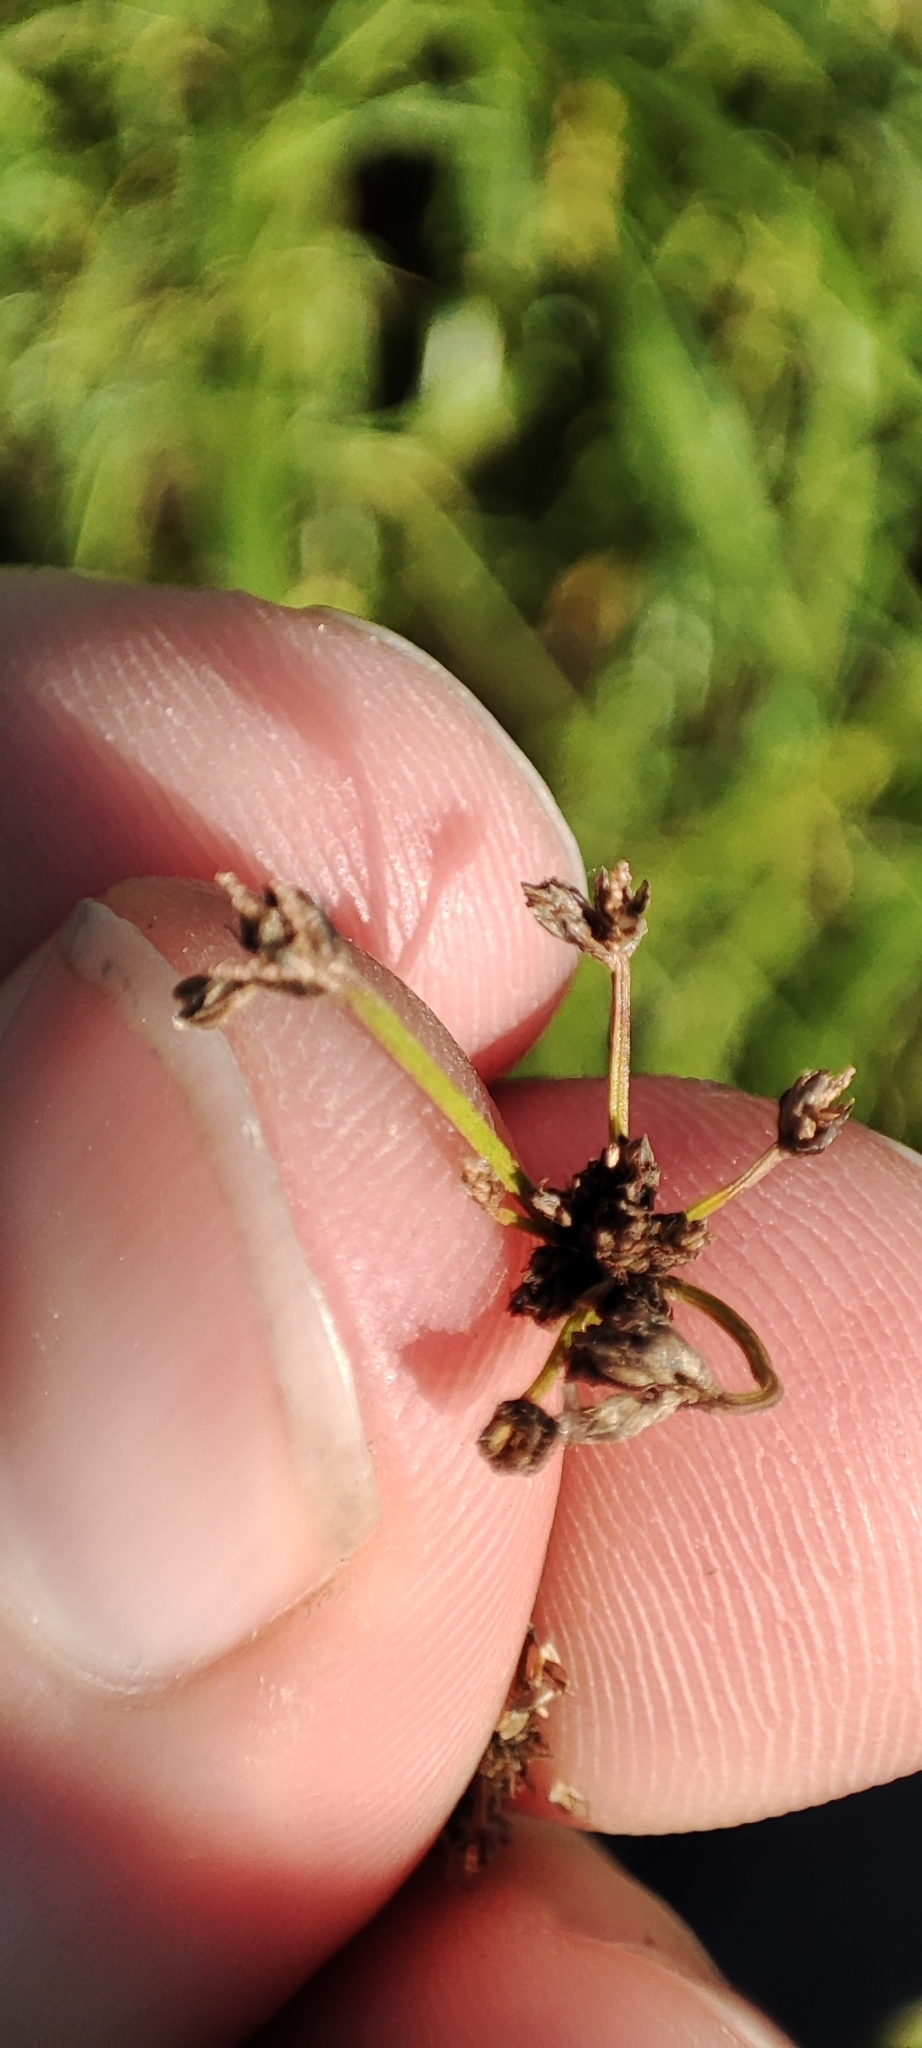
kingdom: Plantae
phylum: Tracheophyta
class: Liliopsida
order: Poales
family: Cyperaceae
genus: Scirpus
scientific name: Scirpus sylvaticus
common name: Wood club-rush
